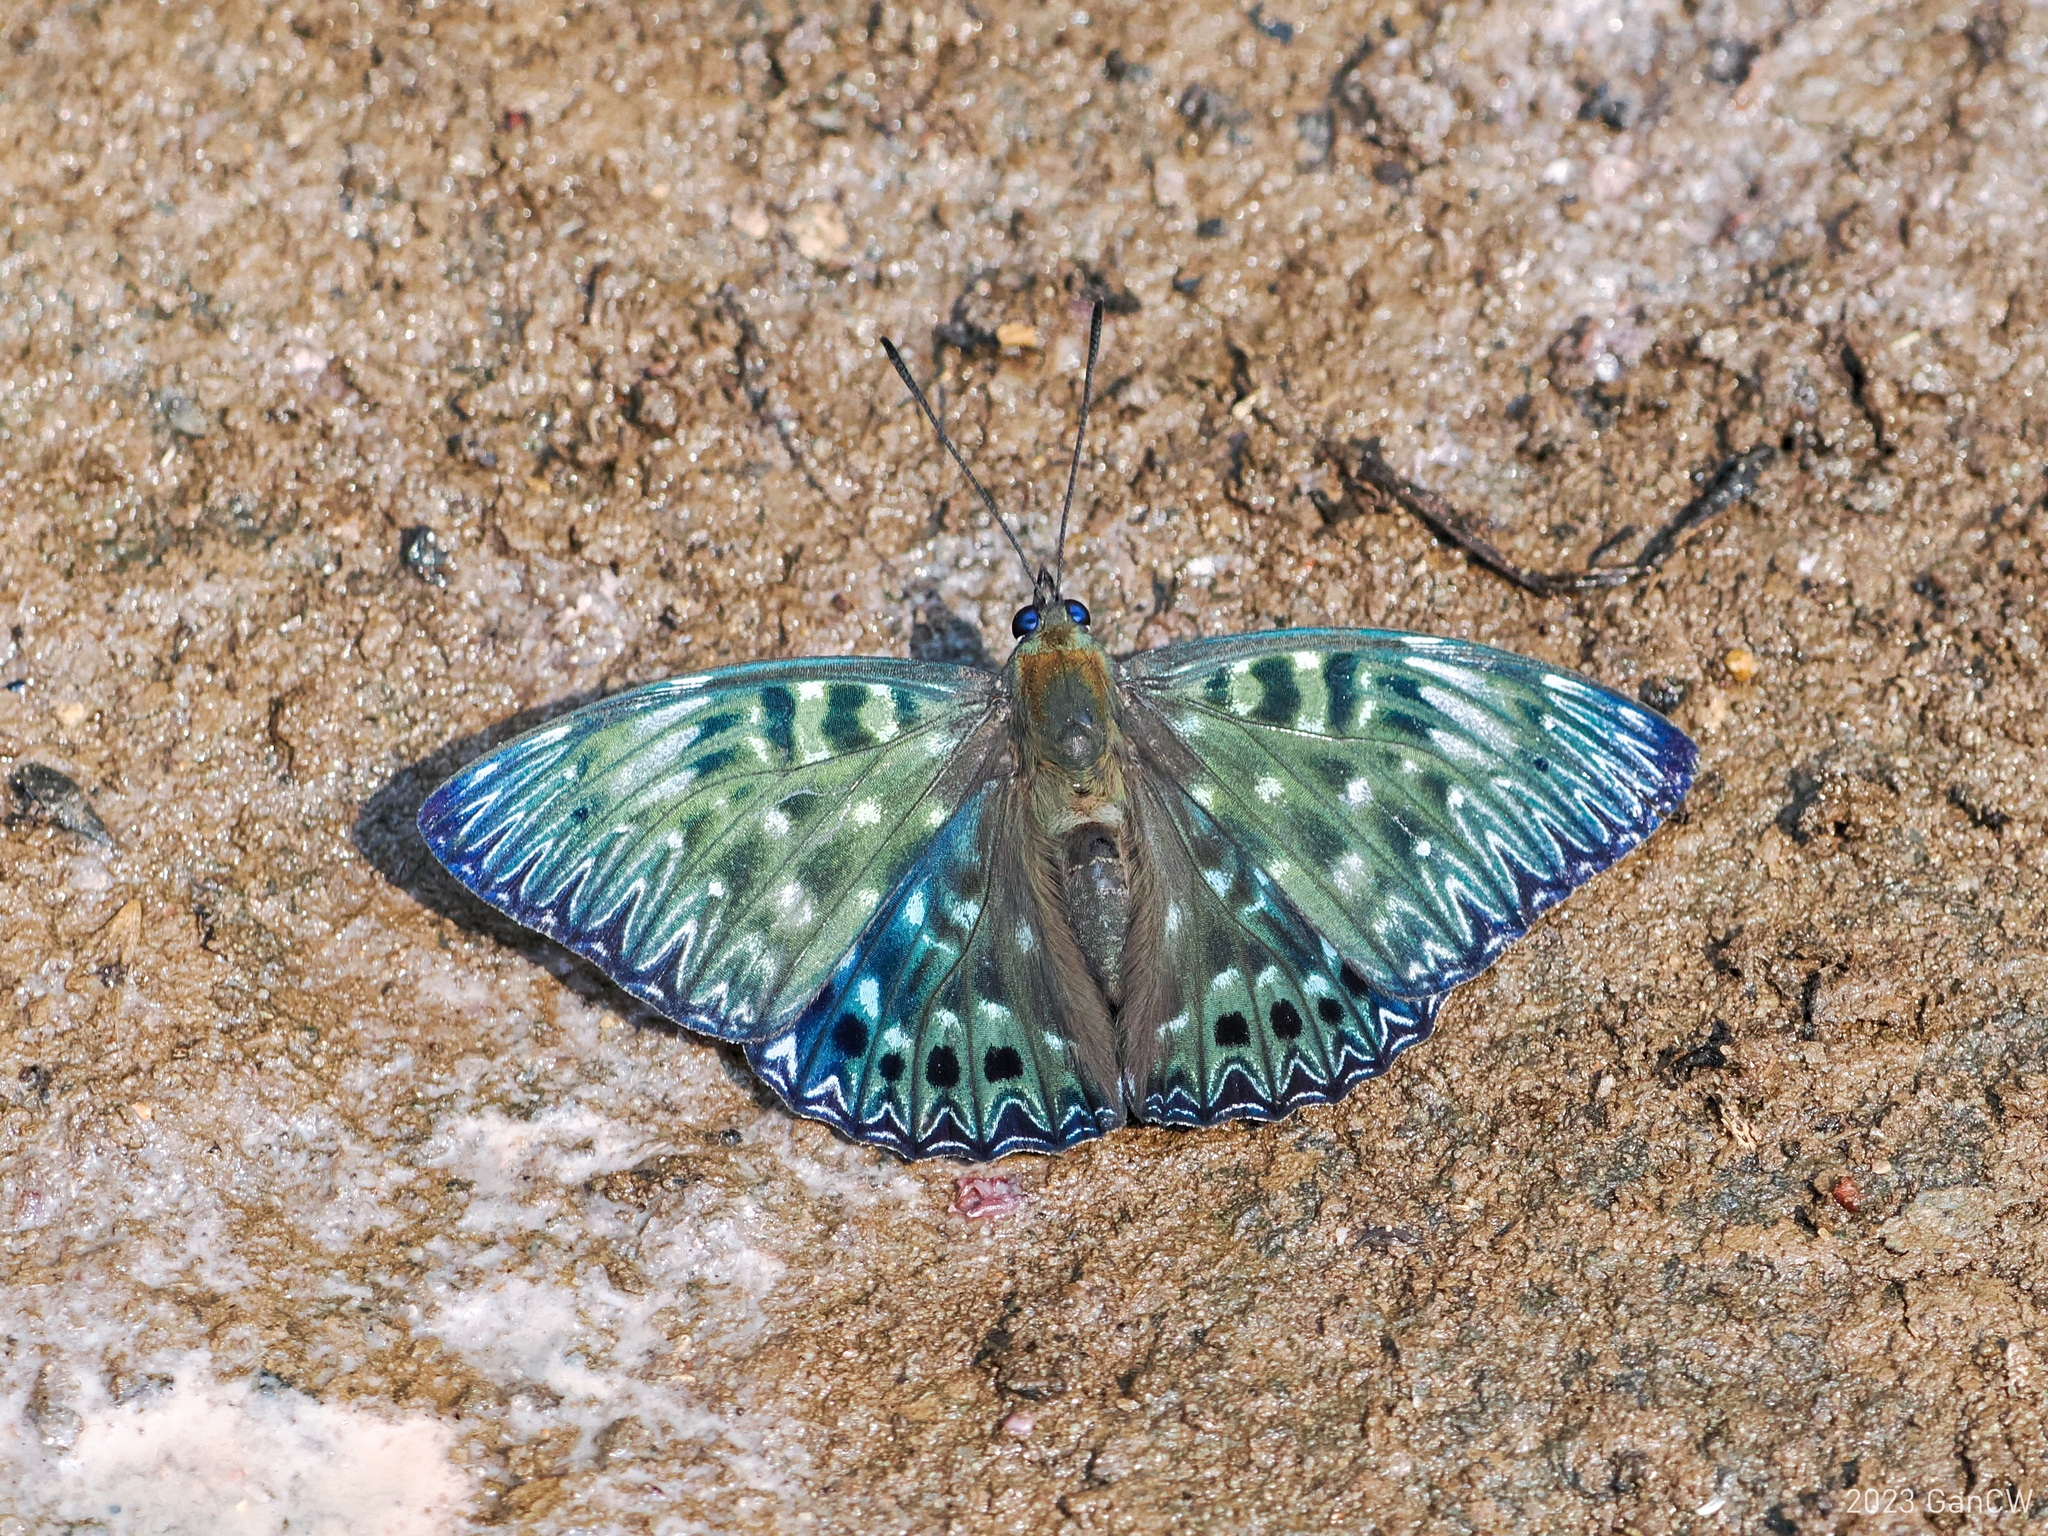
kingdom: Animalia
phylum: Arthropoda
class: Insecta
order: Lepidoptera
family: Nymphalidae
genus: Dichorragia
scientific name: Dichorragia nesimachus
